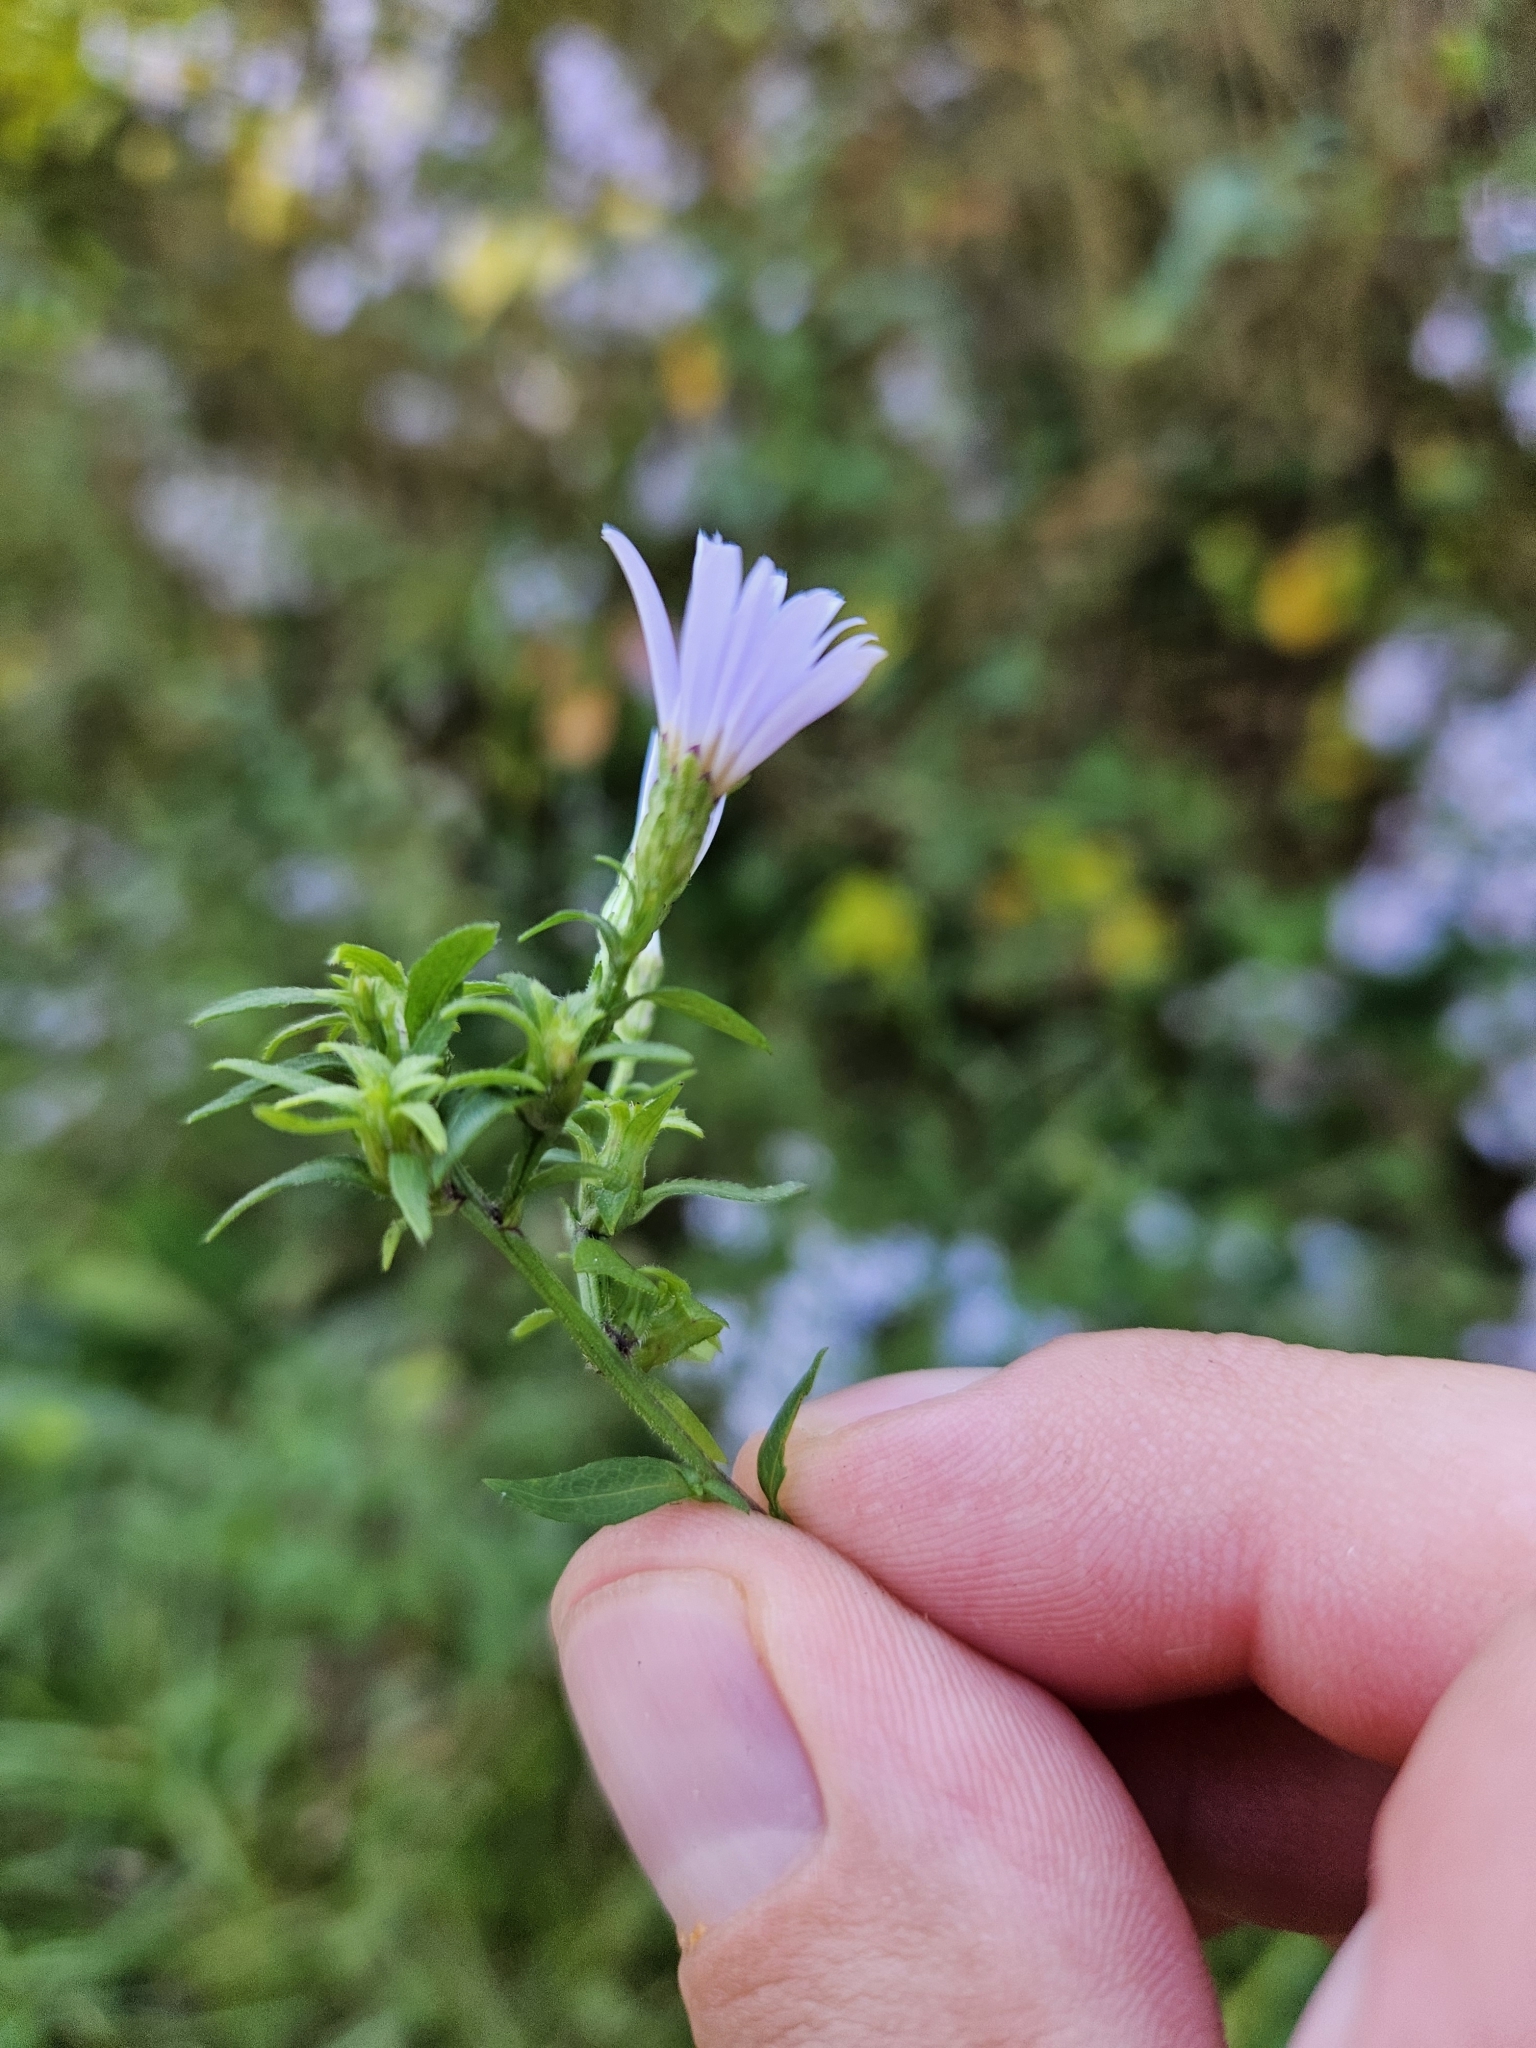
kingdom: Plantae
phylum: Tracheophyta
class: Magnoliopsida
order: Asterales
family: Asteraceae
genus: Symphyotrichum
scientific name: Symphyotrichum cordifolium
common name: Beeweed
